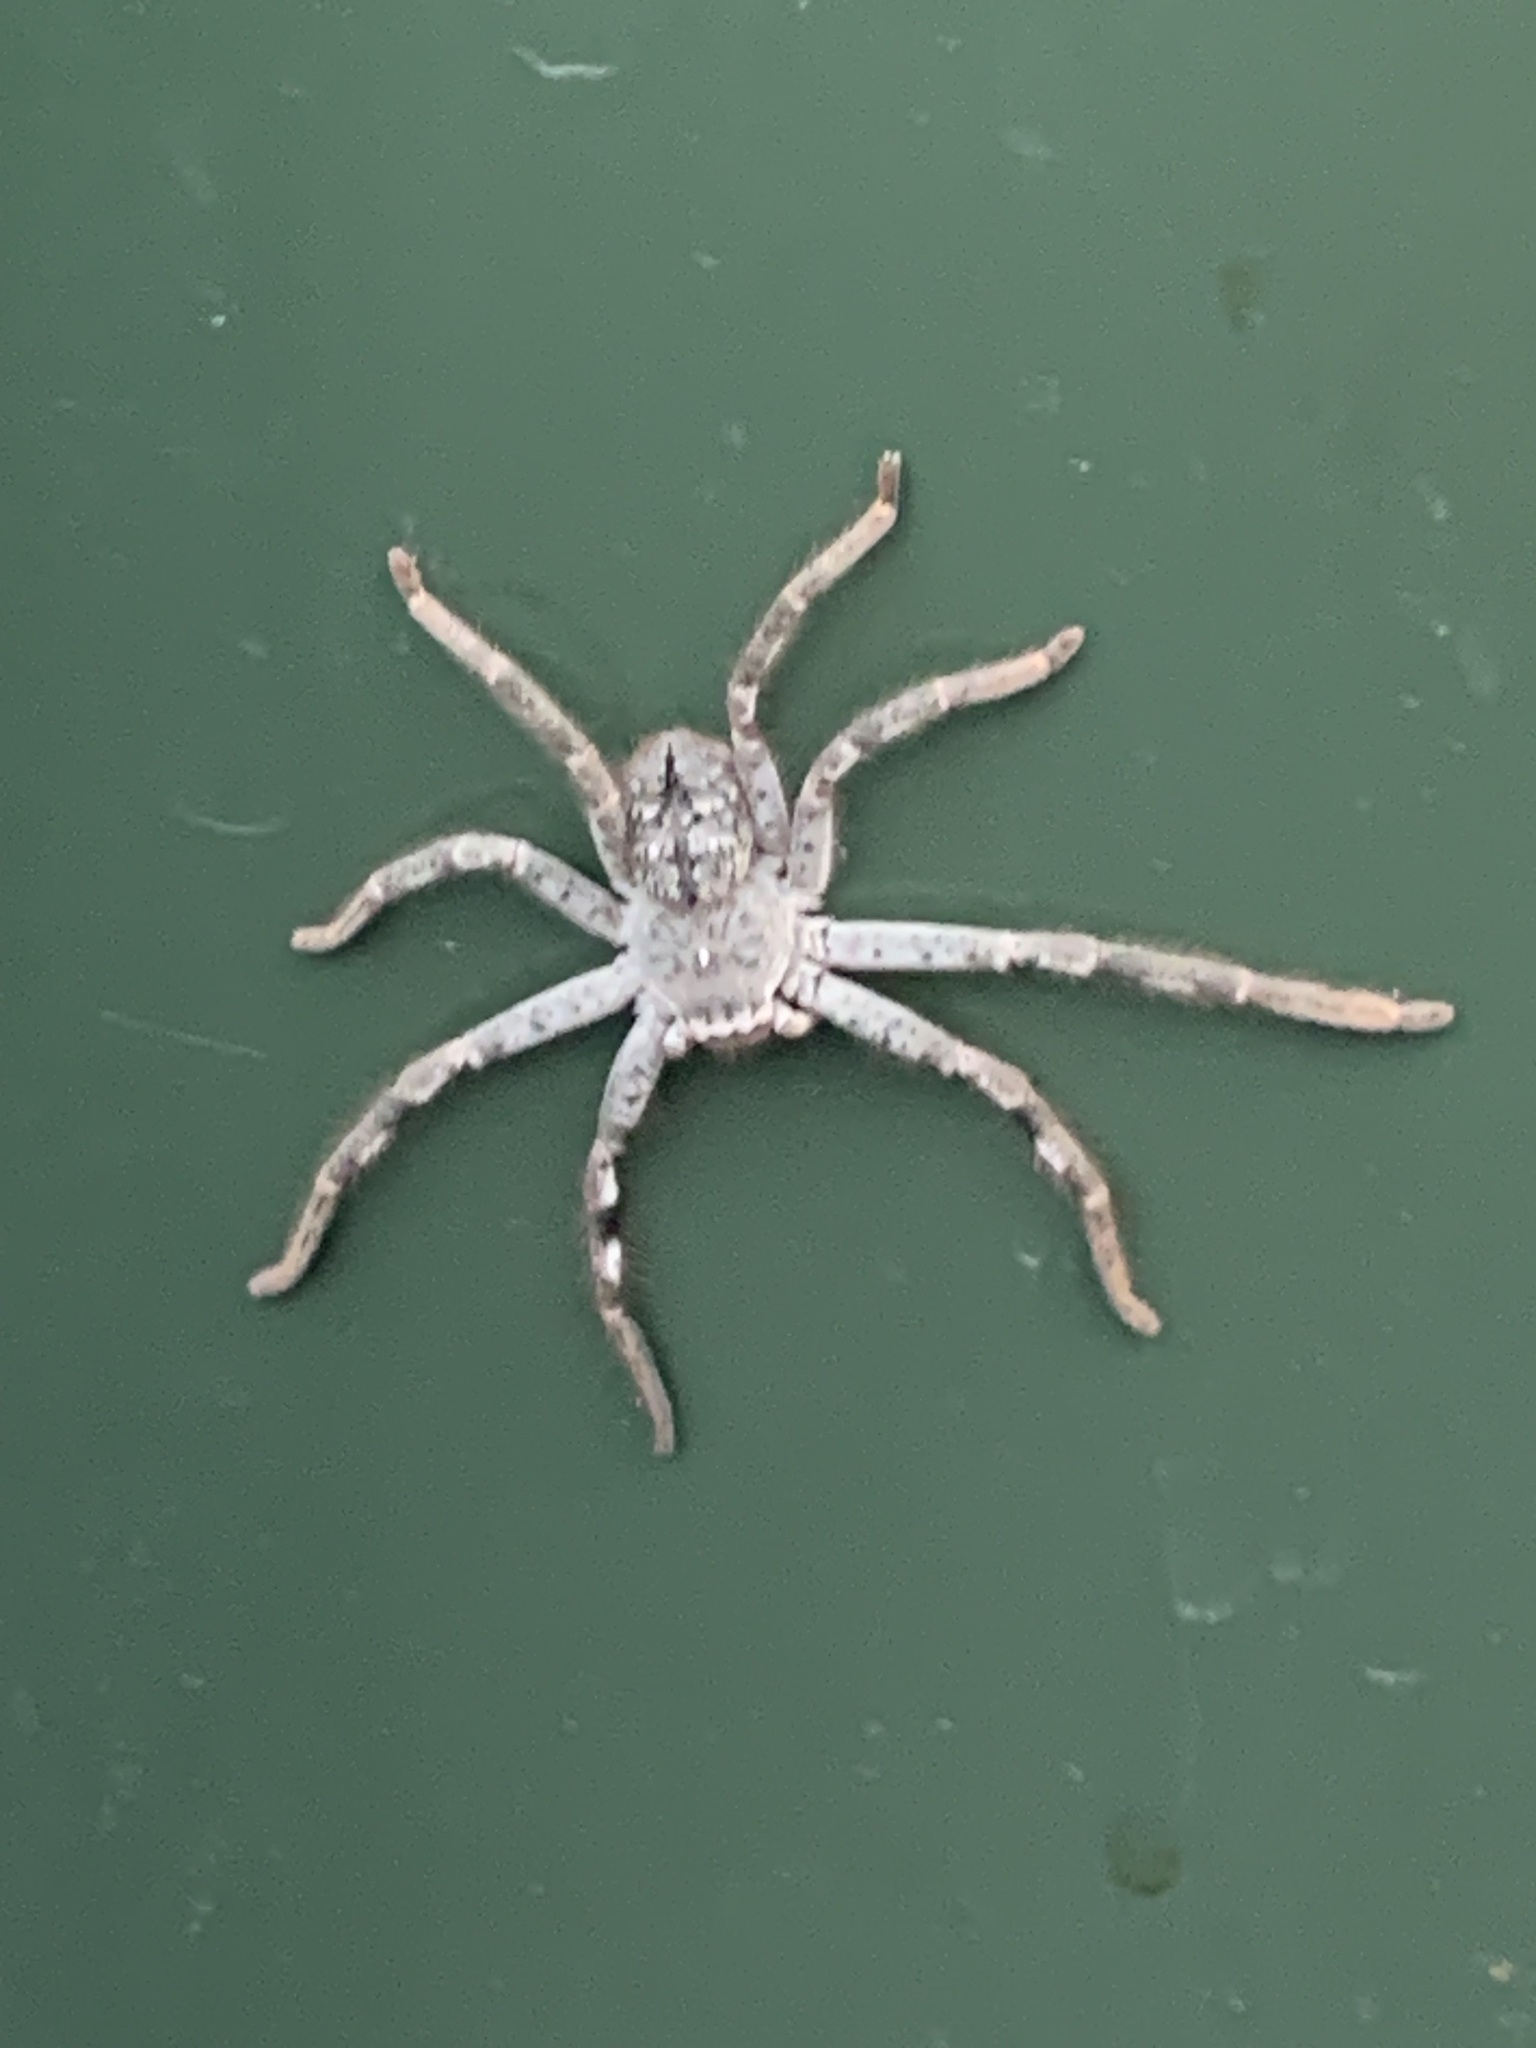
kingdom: Animalia
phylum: Arthropoda
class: Arachnida
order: Araneae
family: Sparassidae
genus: Isopedella
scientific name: Isopedella victorialis
